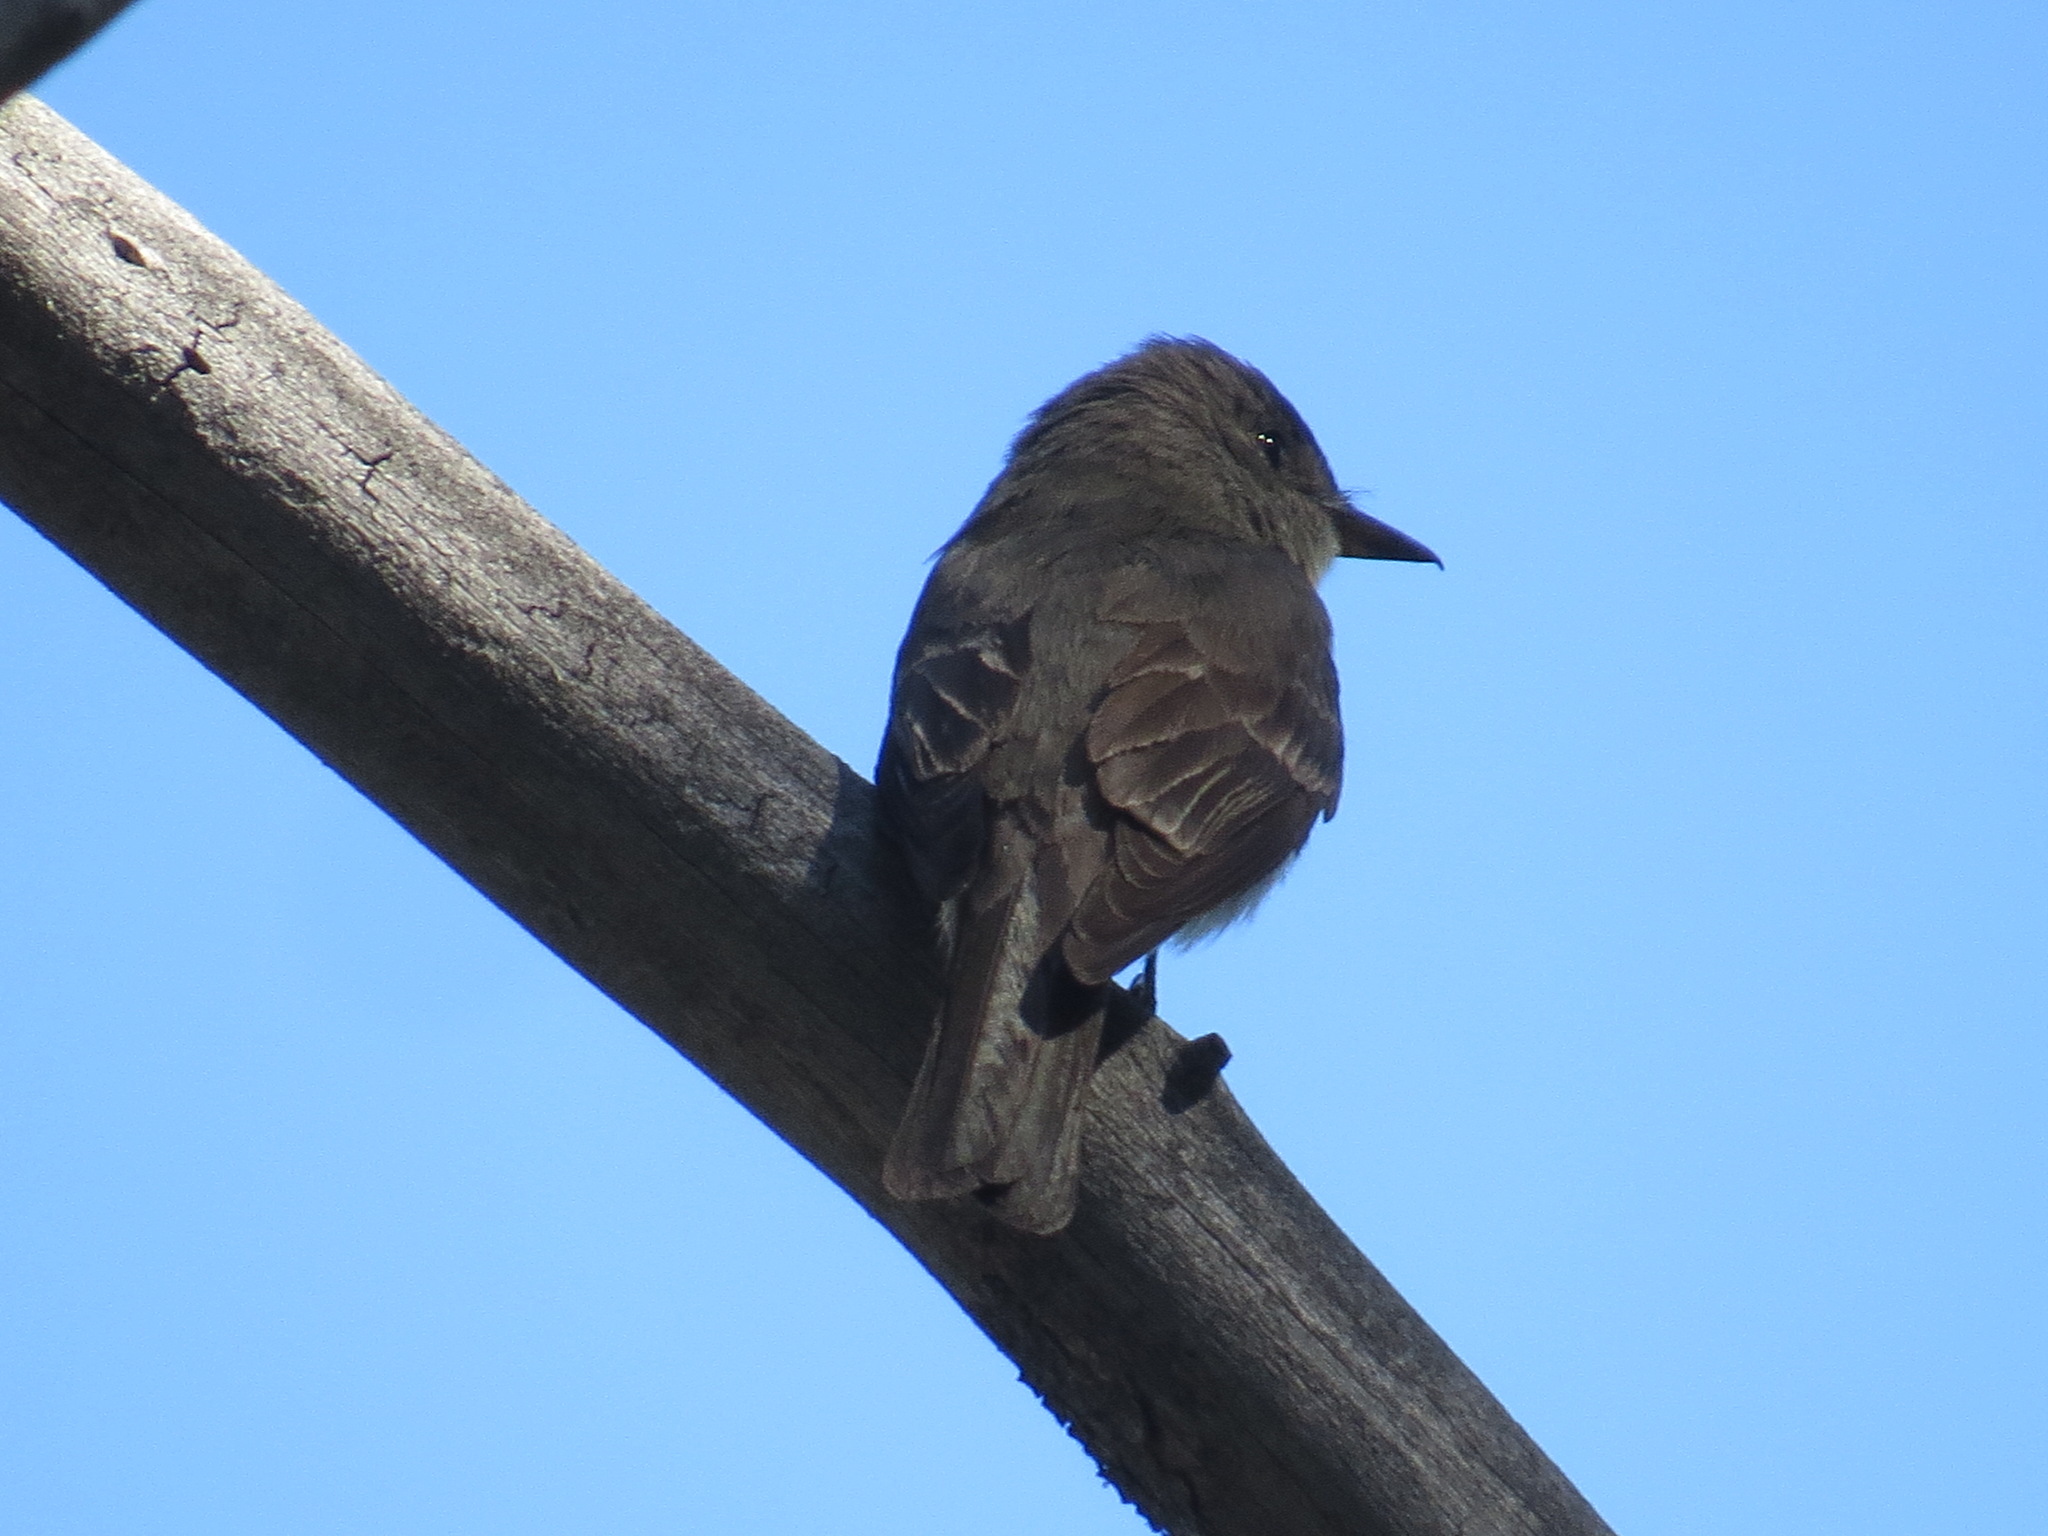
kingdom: Animalia
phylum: Chordata
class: Aves
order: Passeriformes
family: Tyrannidae
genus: Contopus
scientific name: Contopus sordidulus
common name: Western wood-pewee
